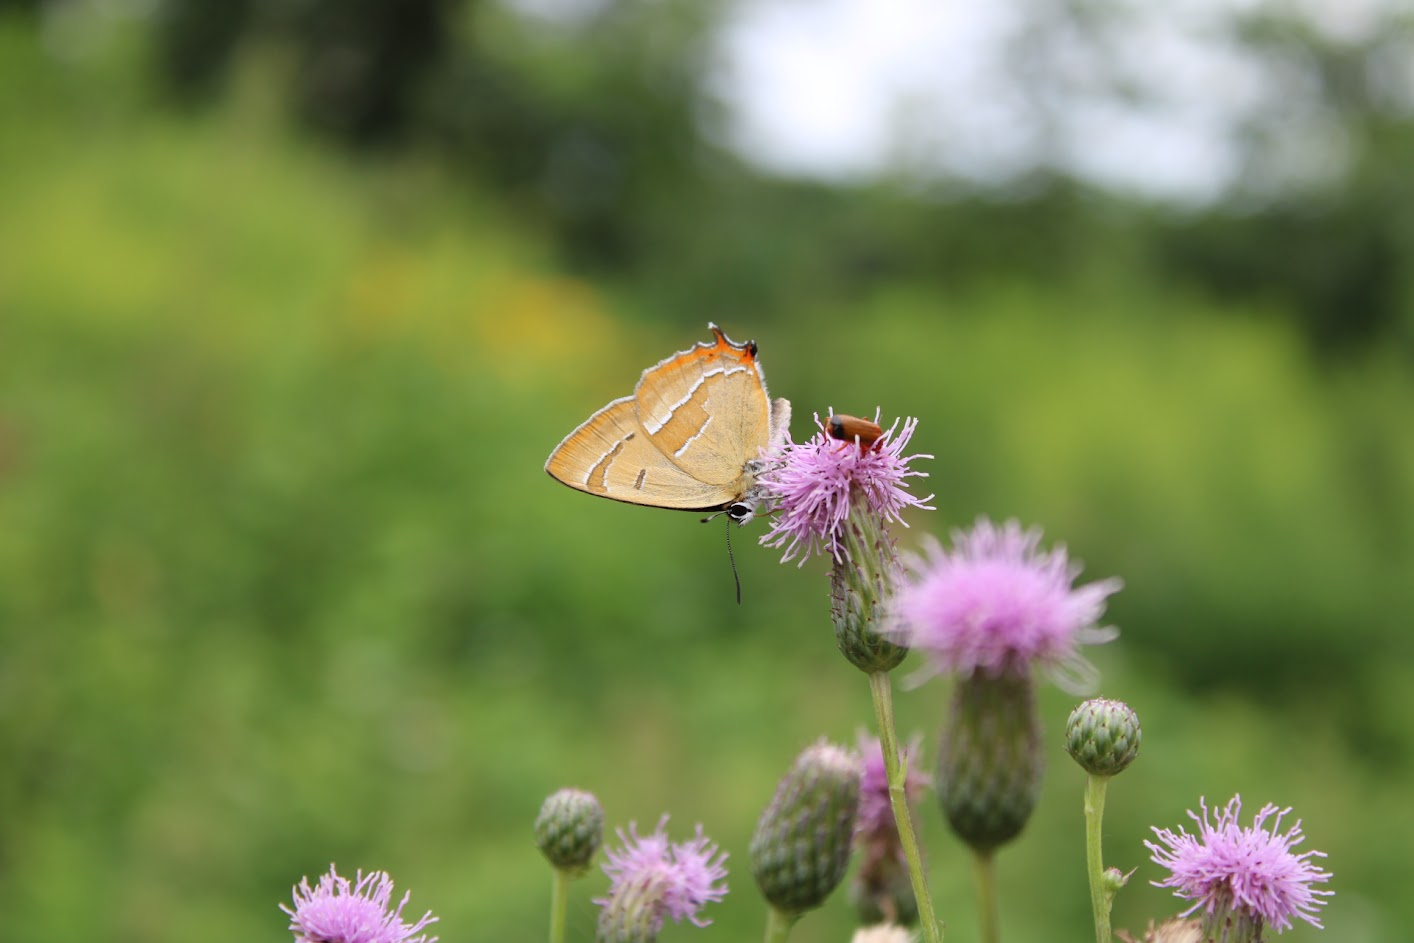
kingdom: Animalia
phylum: Arthropoda
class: Insecta
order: Lepidoptera
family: Lycaenidae
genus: Thecla
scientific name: Thecla betulae
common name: Brown hairstreak
